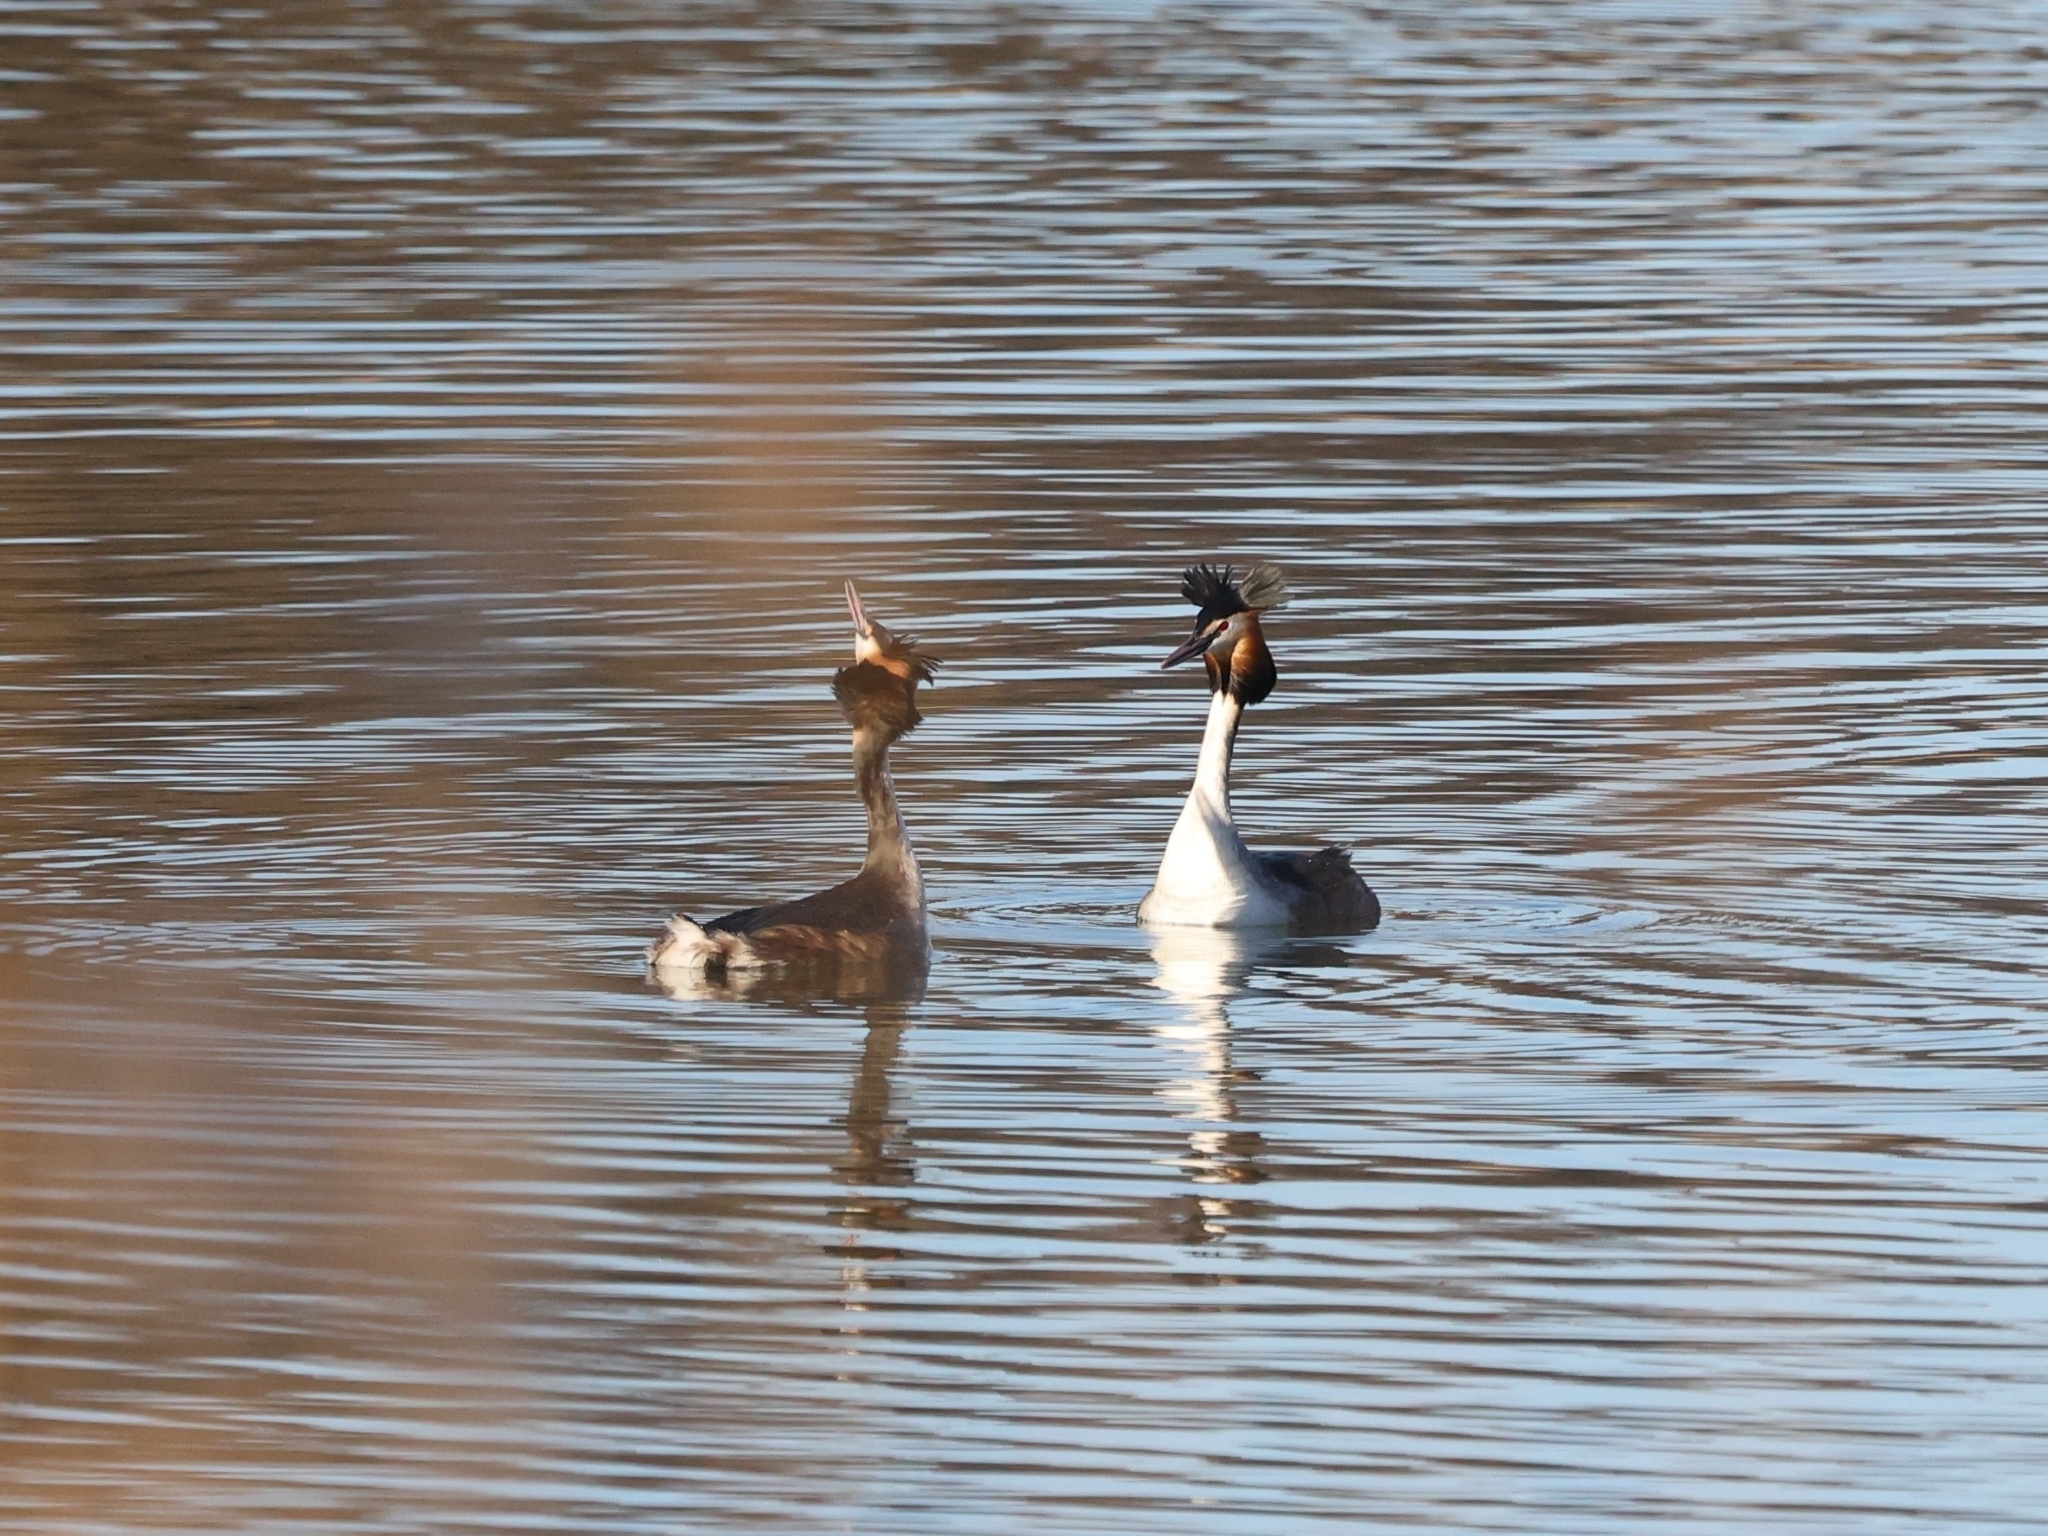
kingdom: Animalia
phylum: Chordata
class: Aves
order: Podicipediformes
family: Podicipedidae
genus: Podiceps
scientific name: Podiceps cristatus
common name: Great crested grebe
